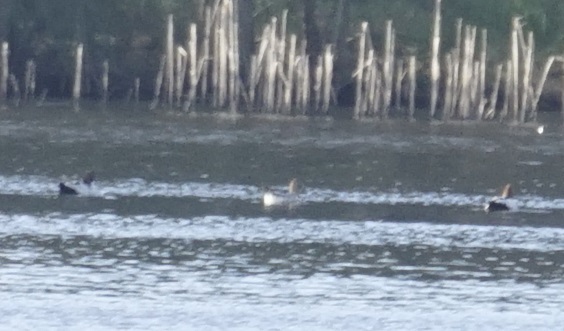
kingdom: Animalia
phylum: Chordata
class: Aves
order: Anseriformes
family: Anatidae
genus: Chenonetta
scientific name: Chenonetta jubata
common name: Maned duck
